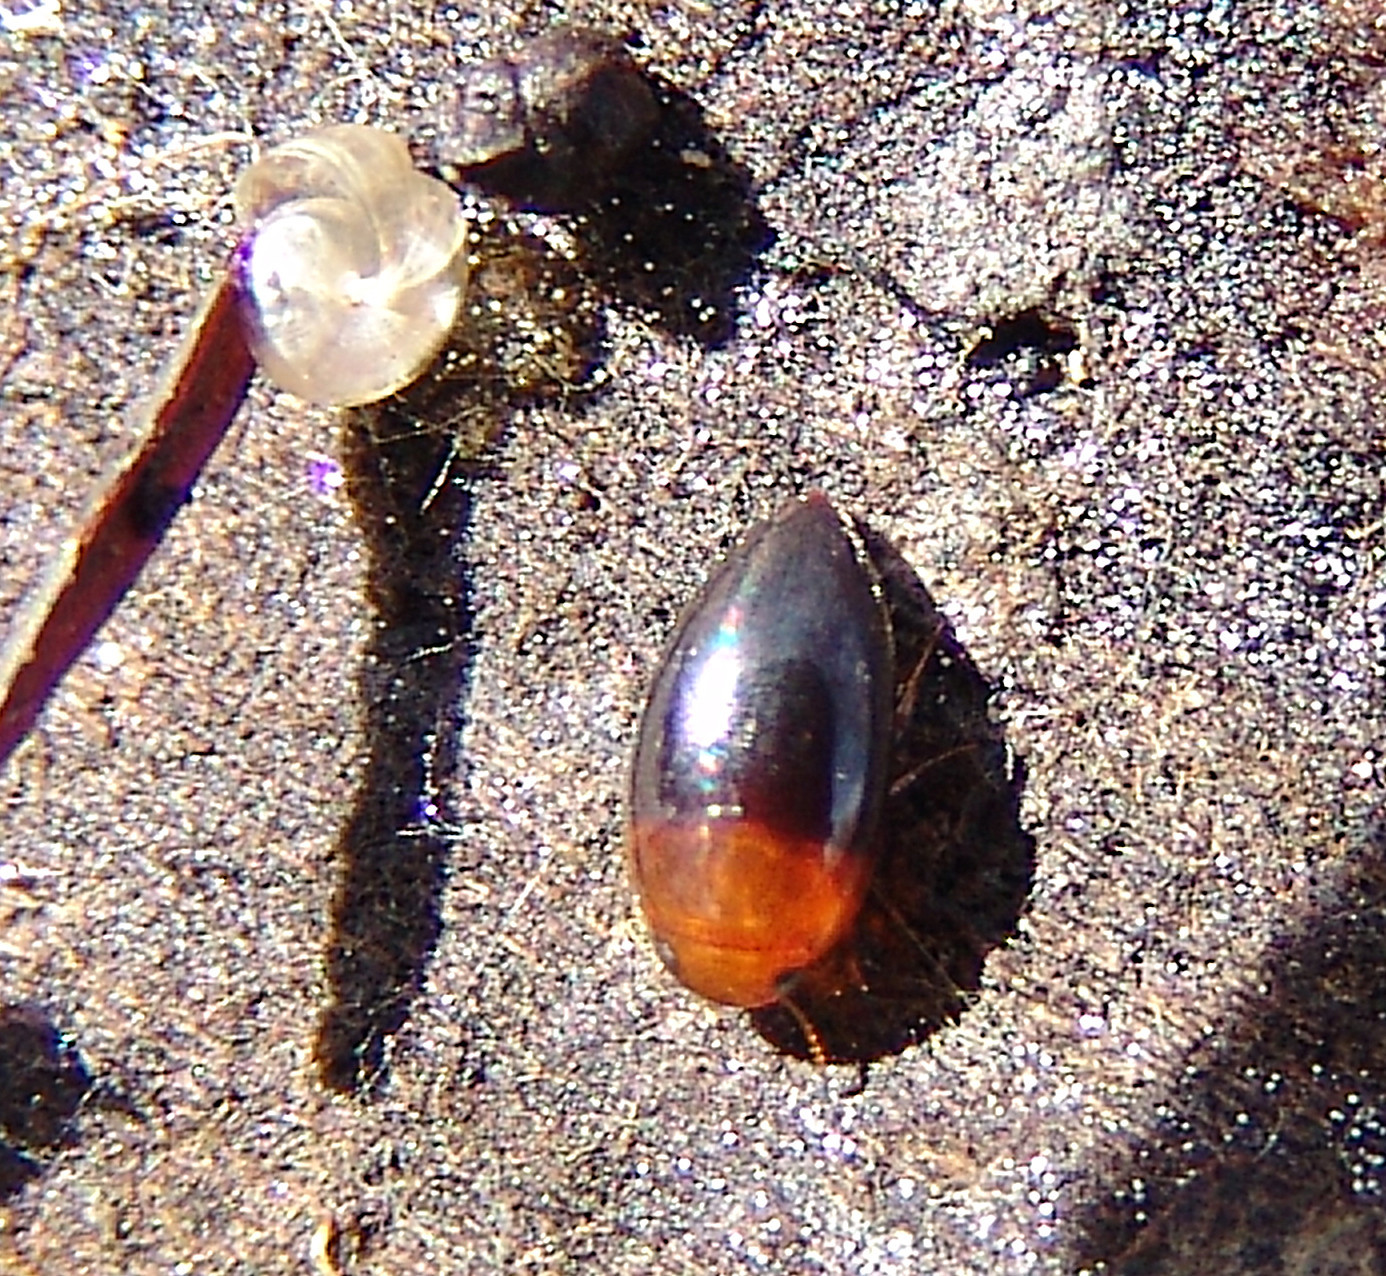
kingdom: Animalia
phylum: Arthropoda
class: Insecta
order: Coleoptera
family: Noteridae
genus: Hydrocanthus
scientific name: Hydrocanthus
